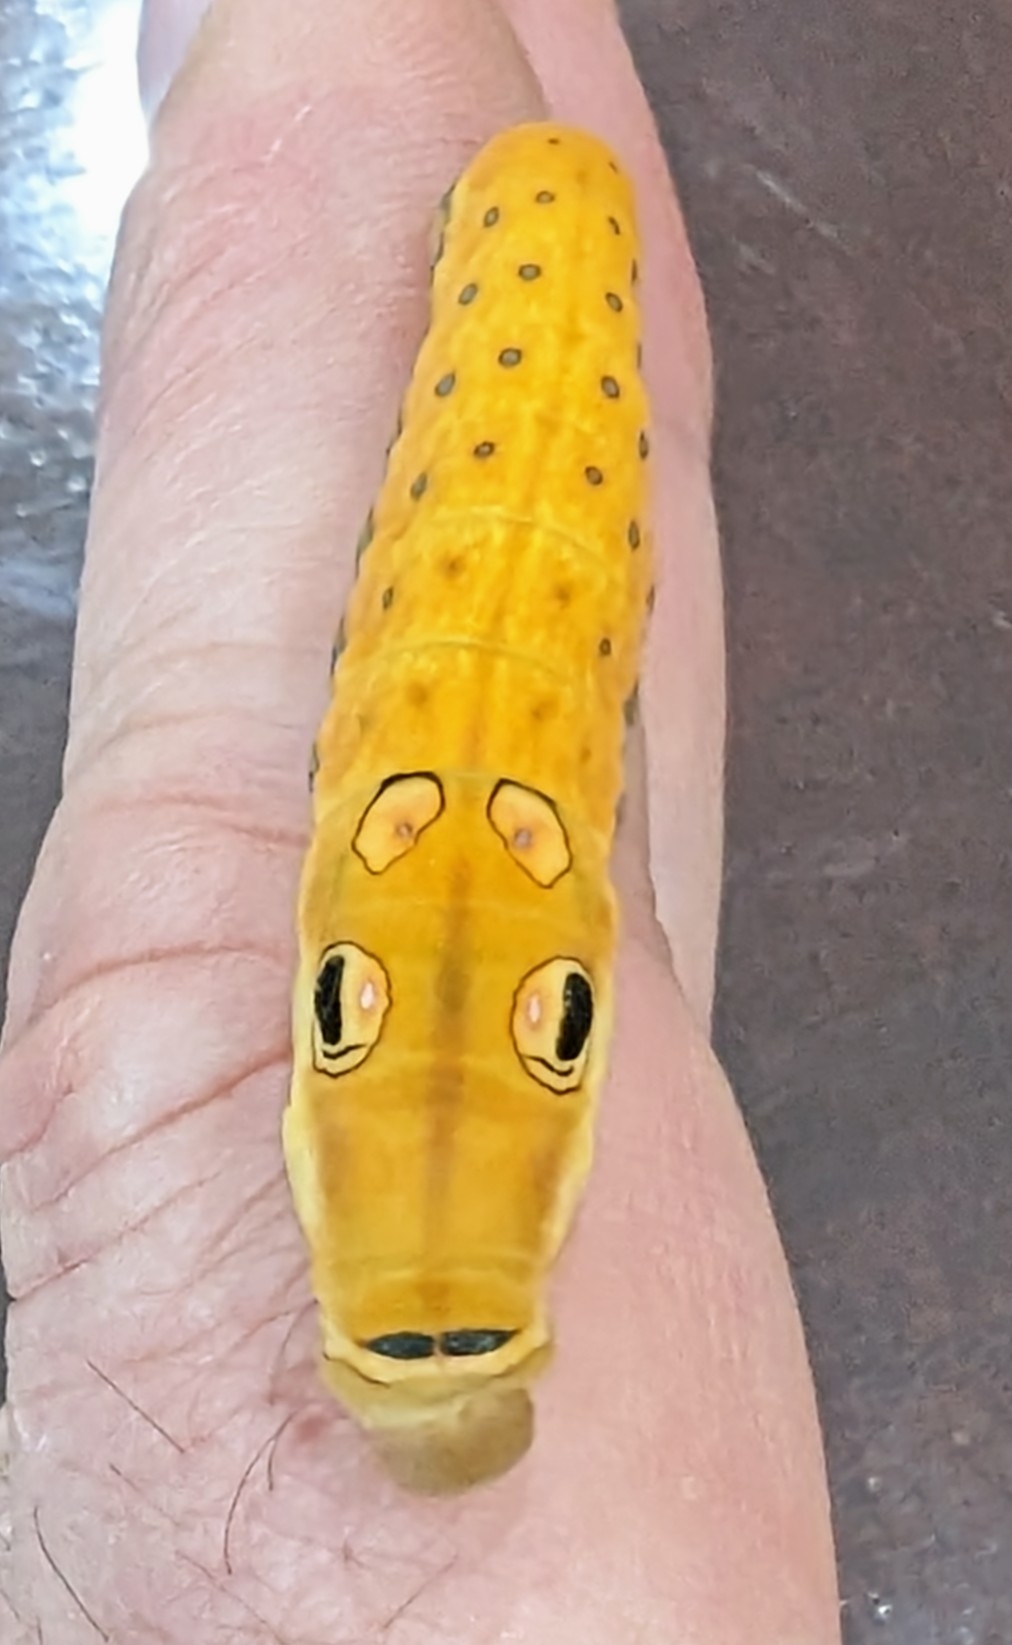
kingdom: Animalia
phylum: Arthropoda
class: Insecta
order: Lepidoptera
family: Papilionidae
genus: Papilio
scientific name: Papilio troilus
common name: Spicebush swallowtail
